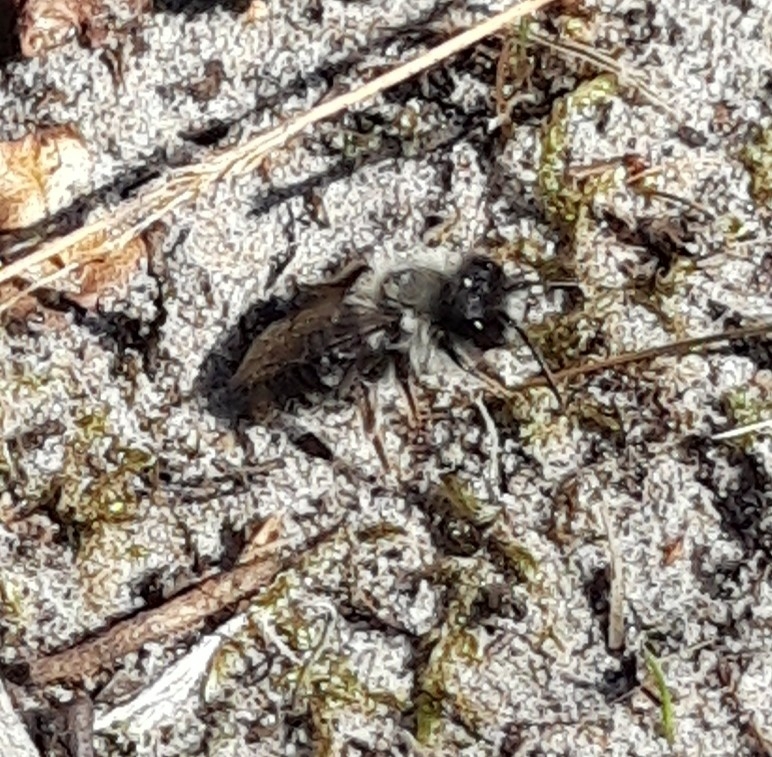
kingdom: Animalia
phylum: Arthropoda
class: Insecta
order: Hymenoptera
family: Andrenidae
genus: Andrena
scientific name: Andrena vaga
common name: Grey-backed mining bee
